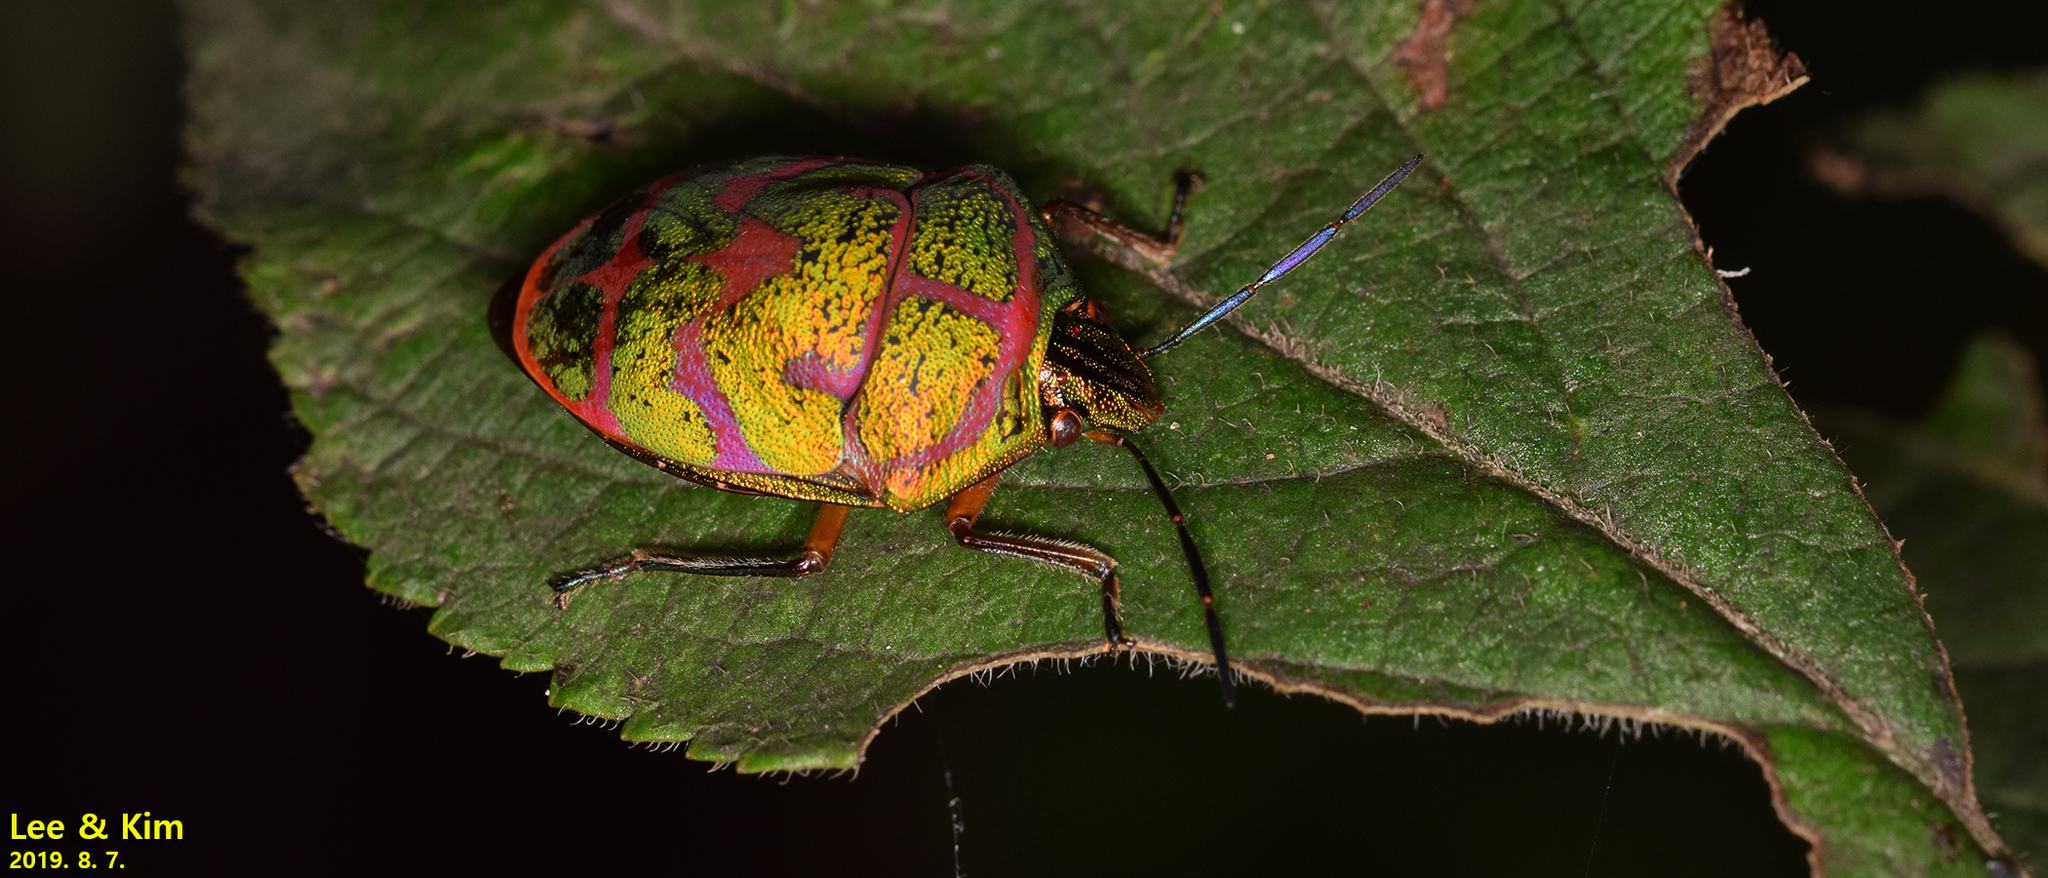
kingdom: Animalia
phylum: Arthropoda
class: Insecta
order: Hemiptera
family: Scutelleridae
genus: Poecilocoris
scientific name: Poecilocoris lewisi
